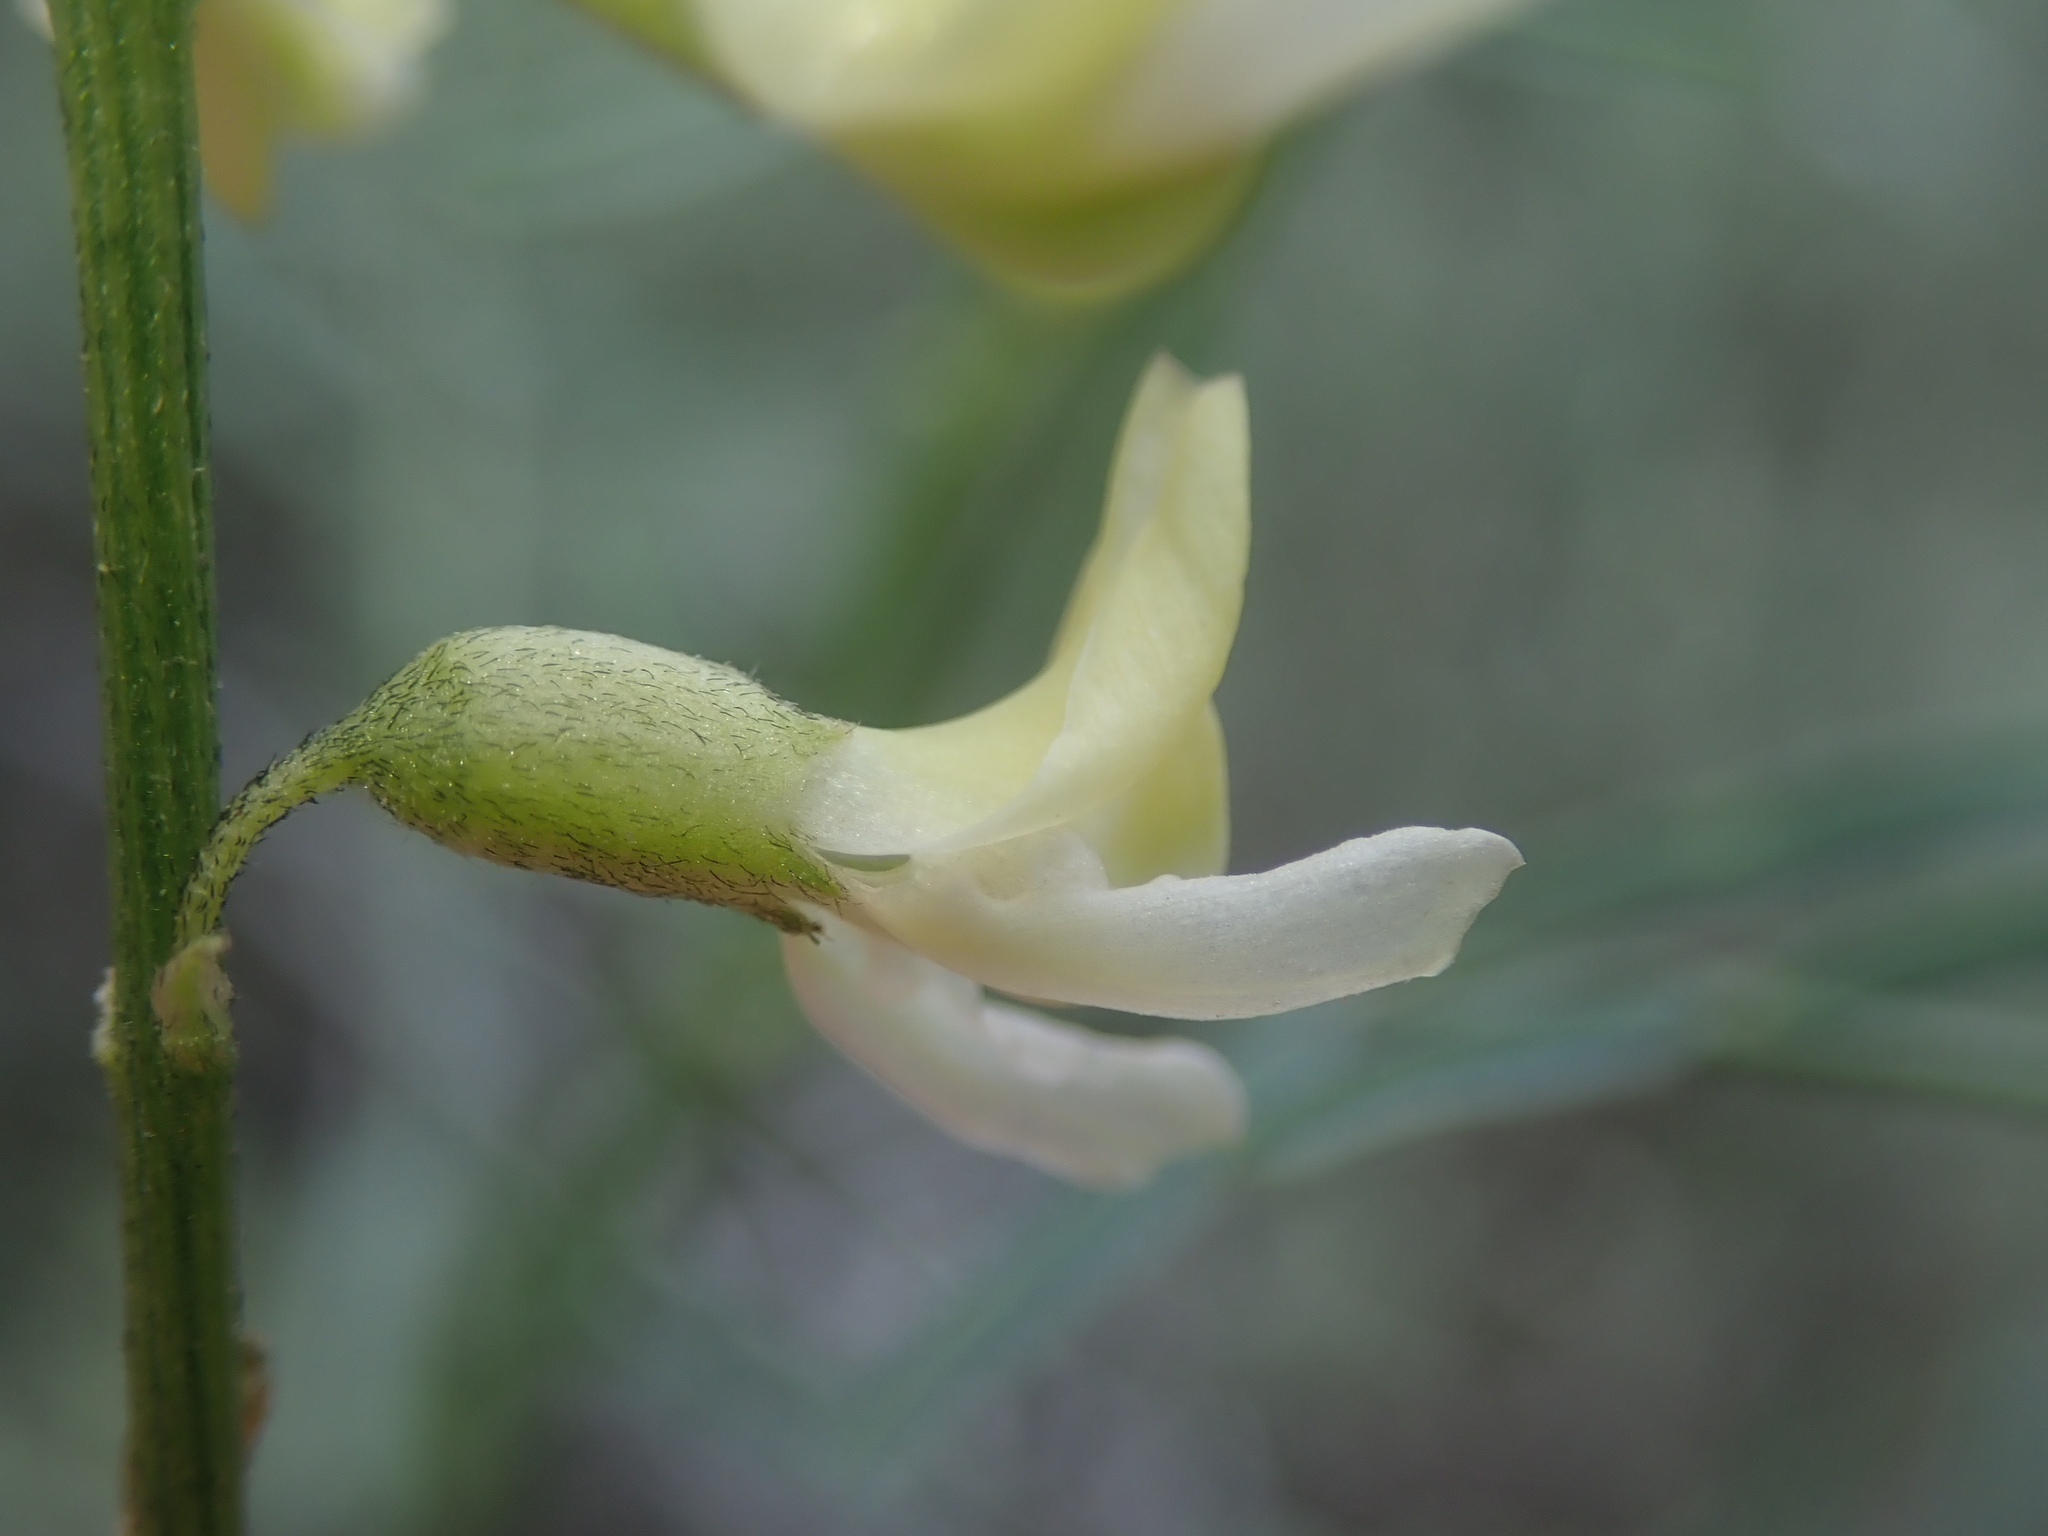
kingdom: Plantae
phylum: Tracheophyta
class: Magnoliopsida
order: Fabales
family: Fabaceae
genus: Astragalus
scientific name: Astragalus filipes
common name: Basalt milk-vetch
